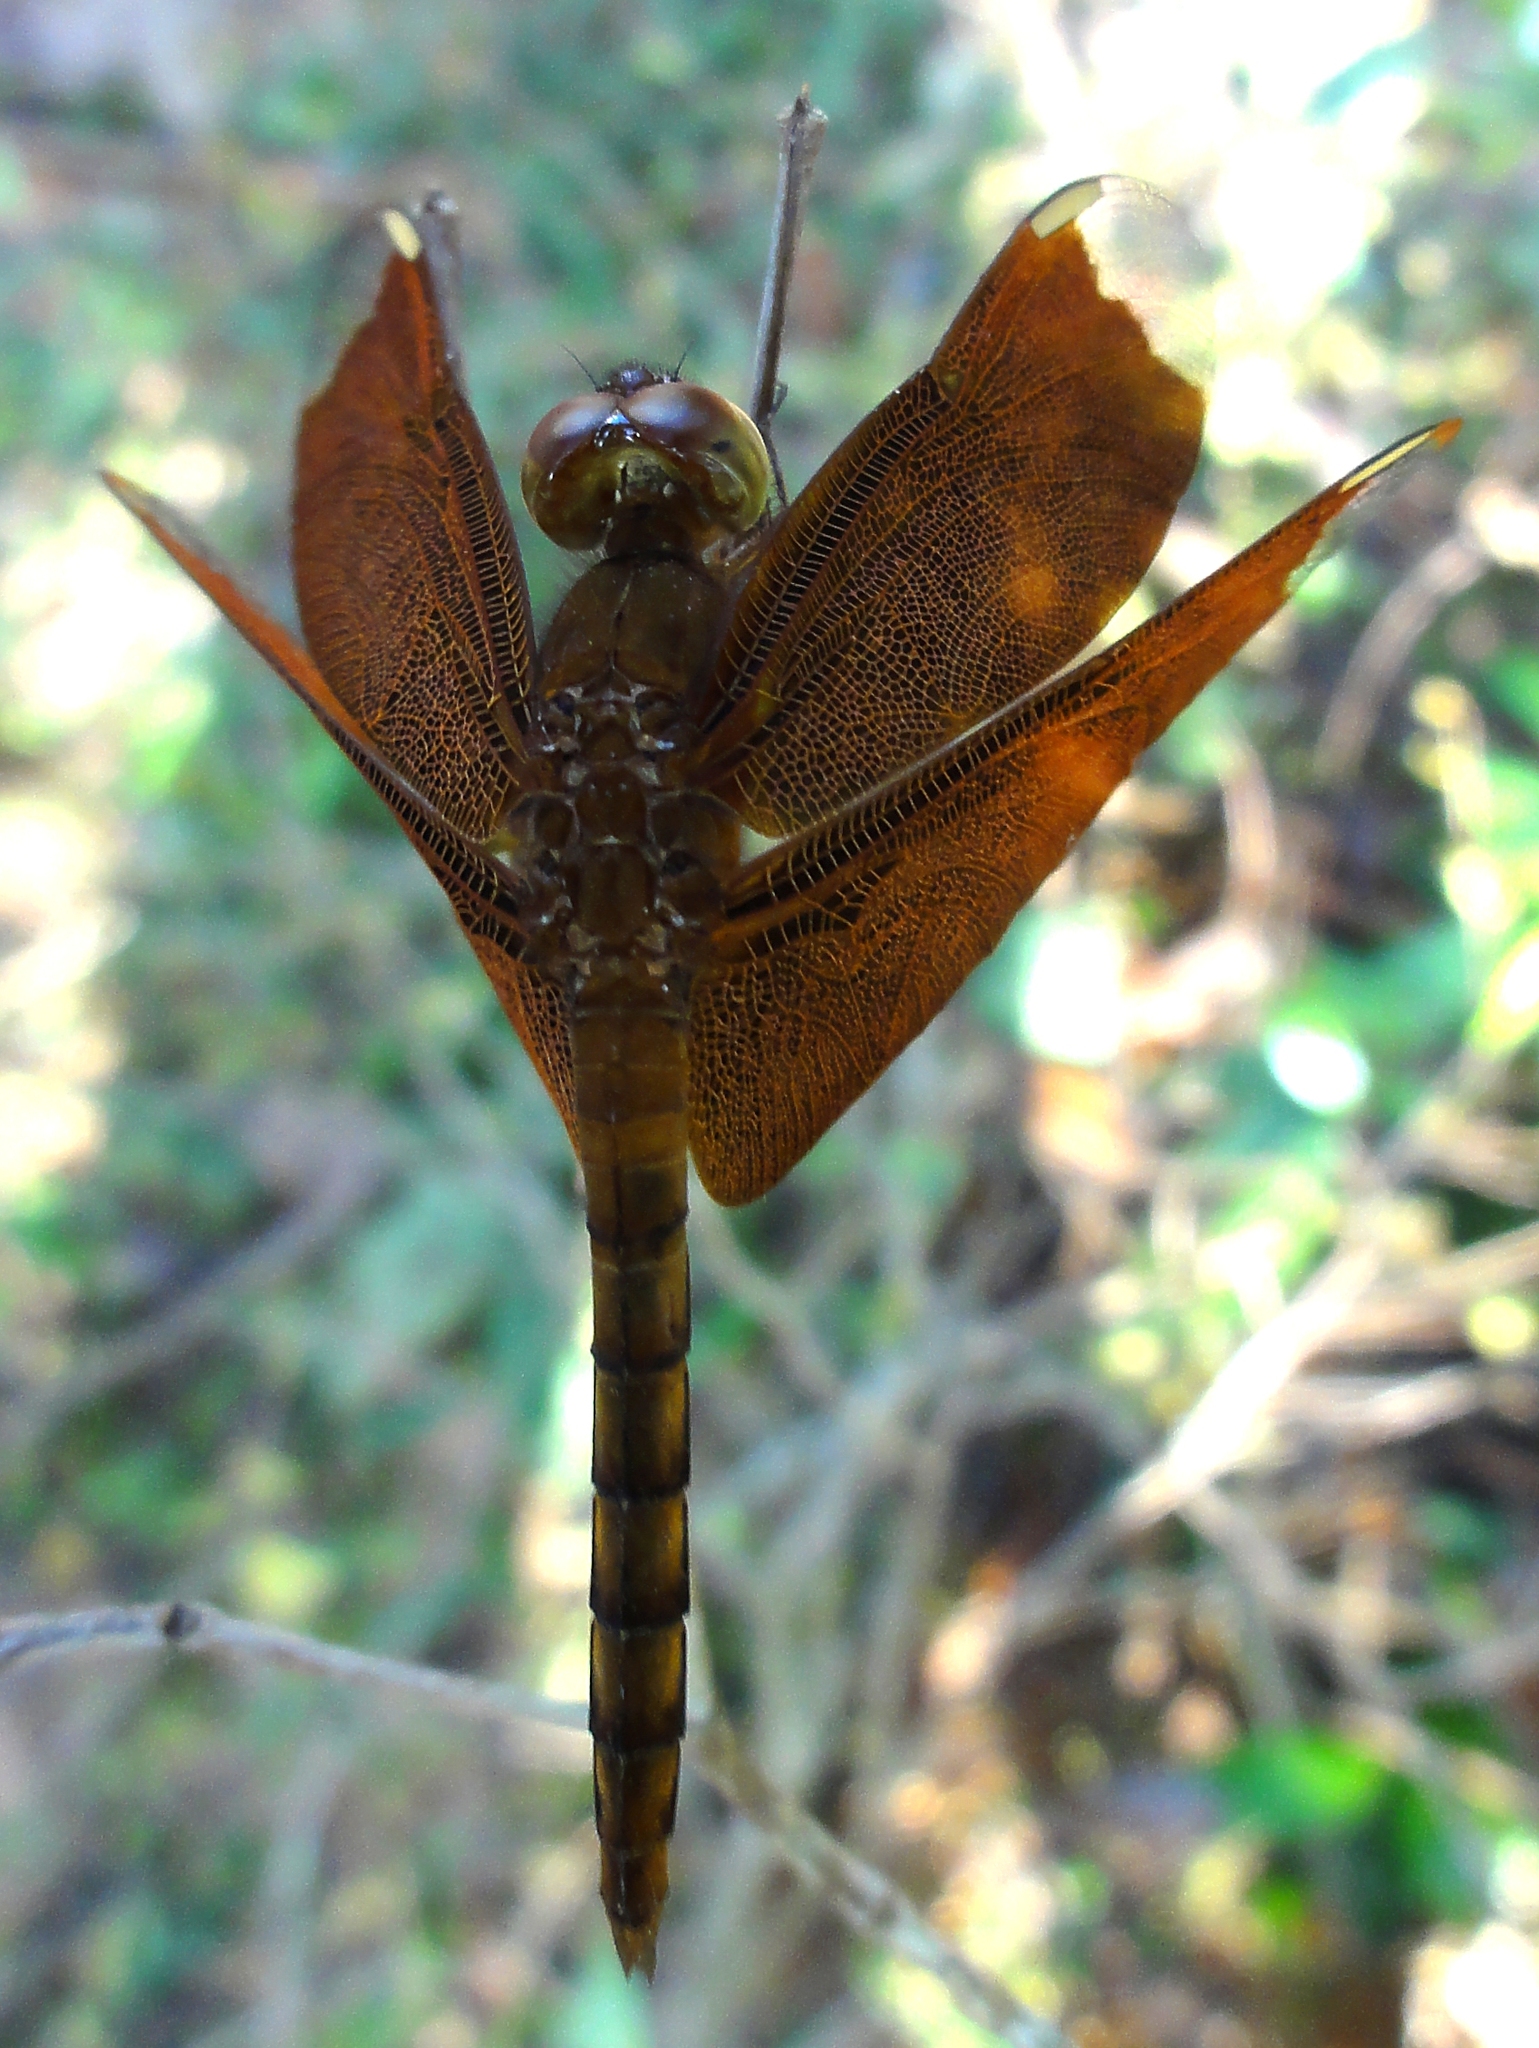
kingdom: Animalia
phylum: Arthropoda
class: Insecta
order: Odonata
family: Libellulidae
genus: Neurothemis
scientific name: Neurothemis fulvia
